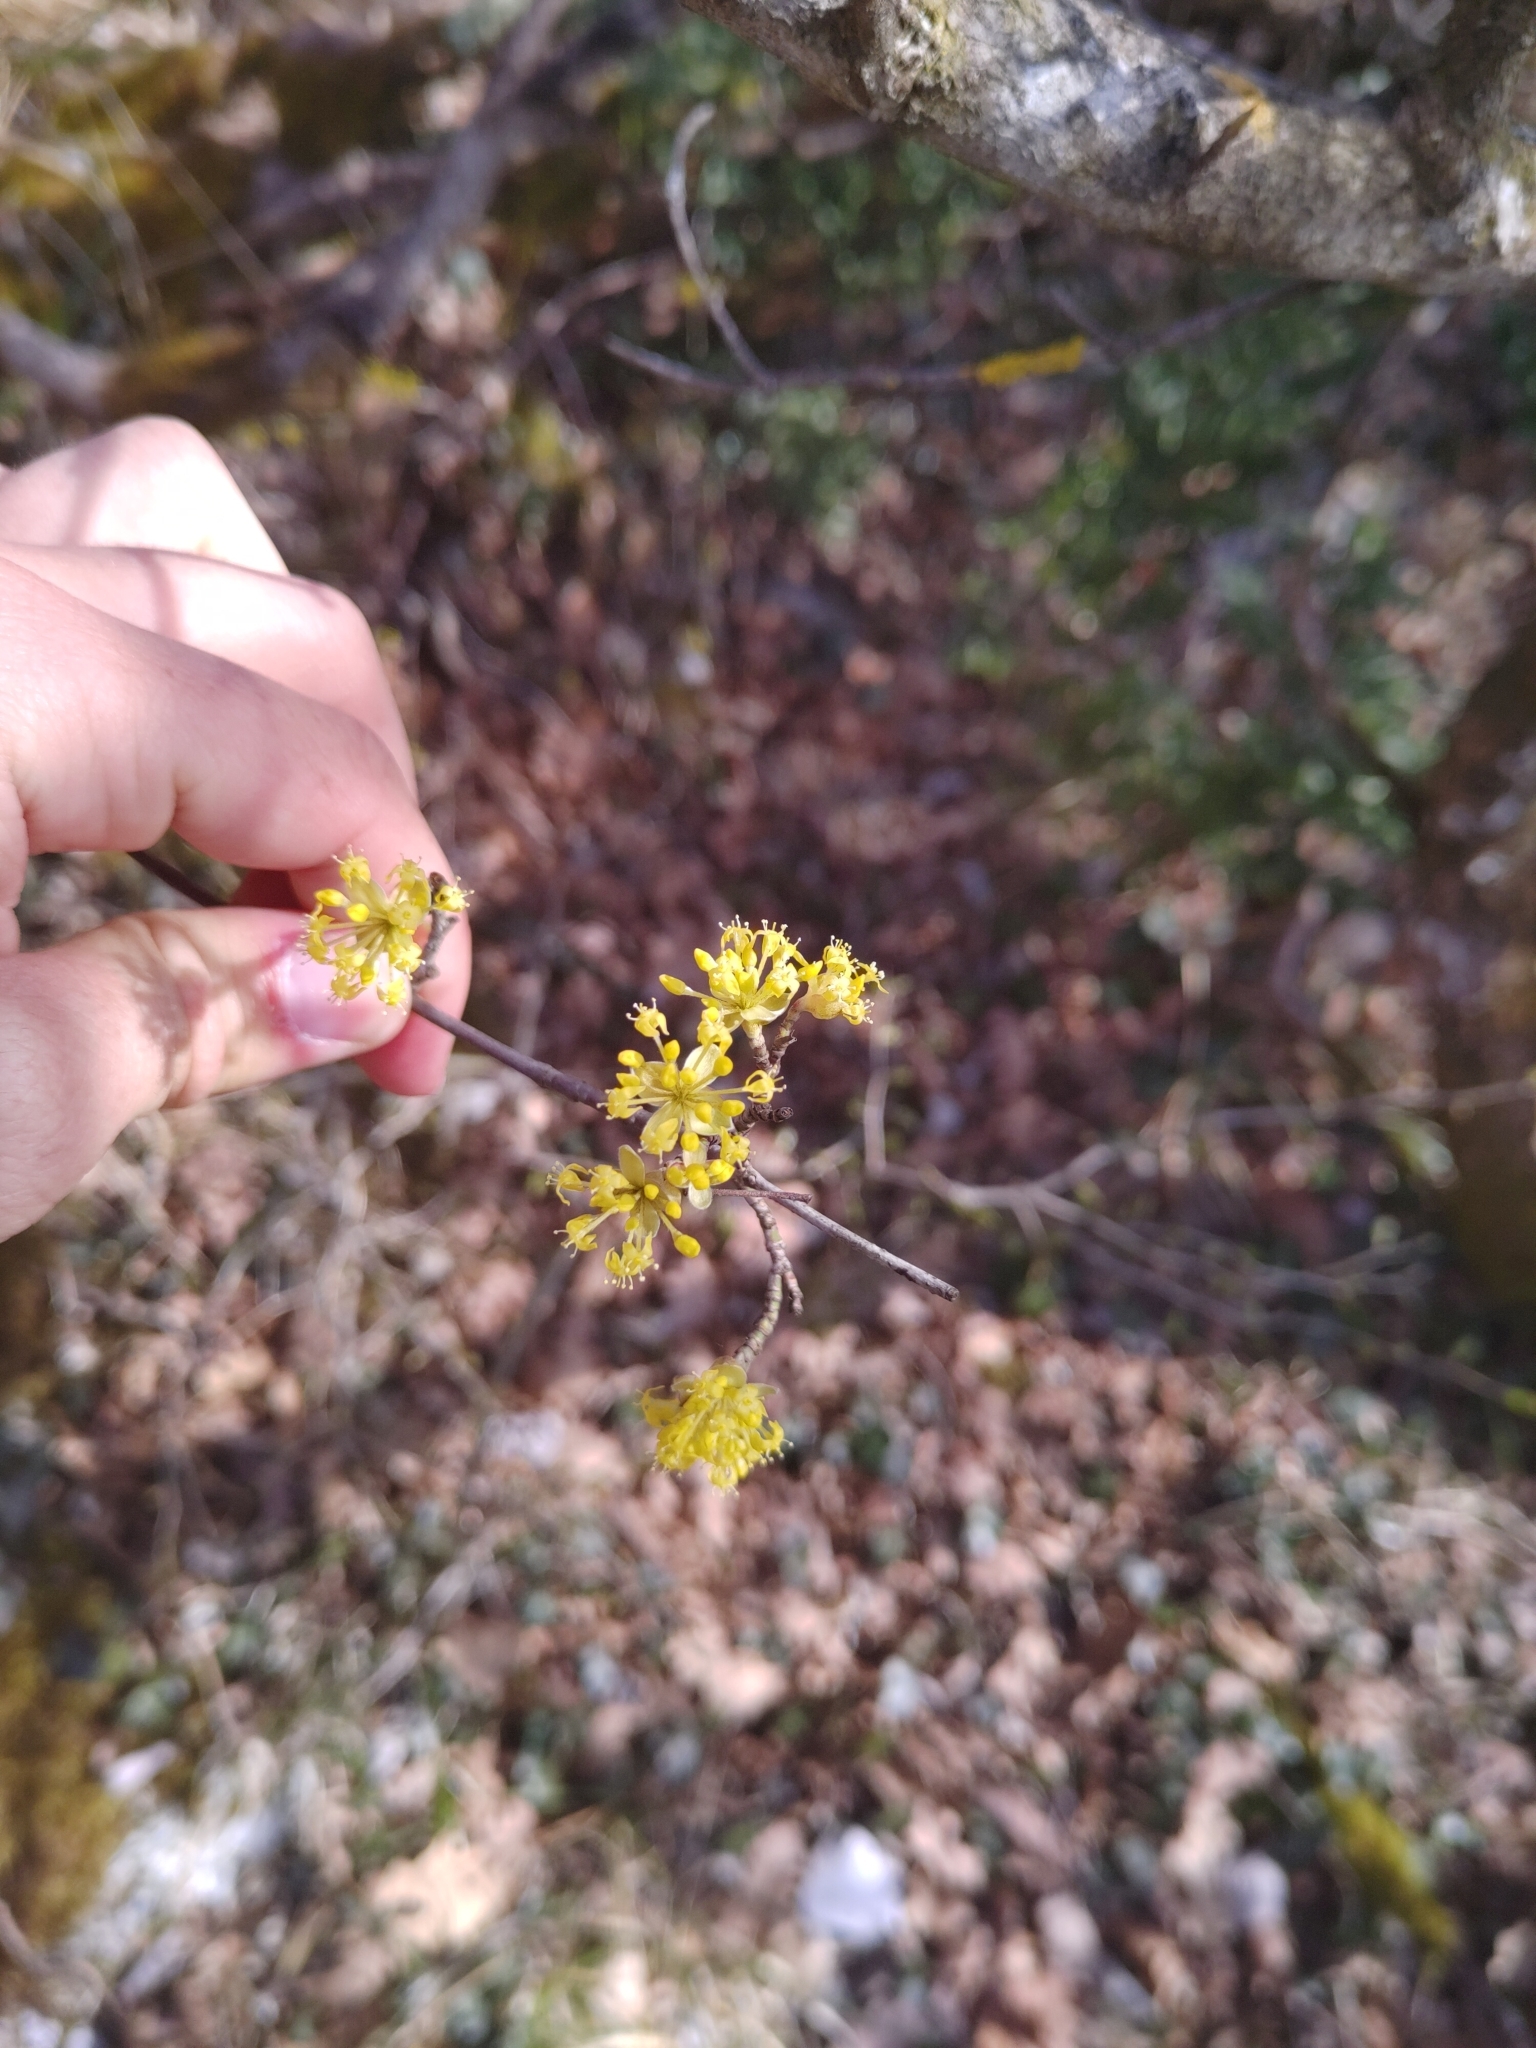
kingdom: Plantae
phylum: Tracheophyta
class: Magnoliopsida
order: Cornales
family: Cornaceae
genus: Cornus
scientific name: Cornus mas
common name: Cornelian-cherry
